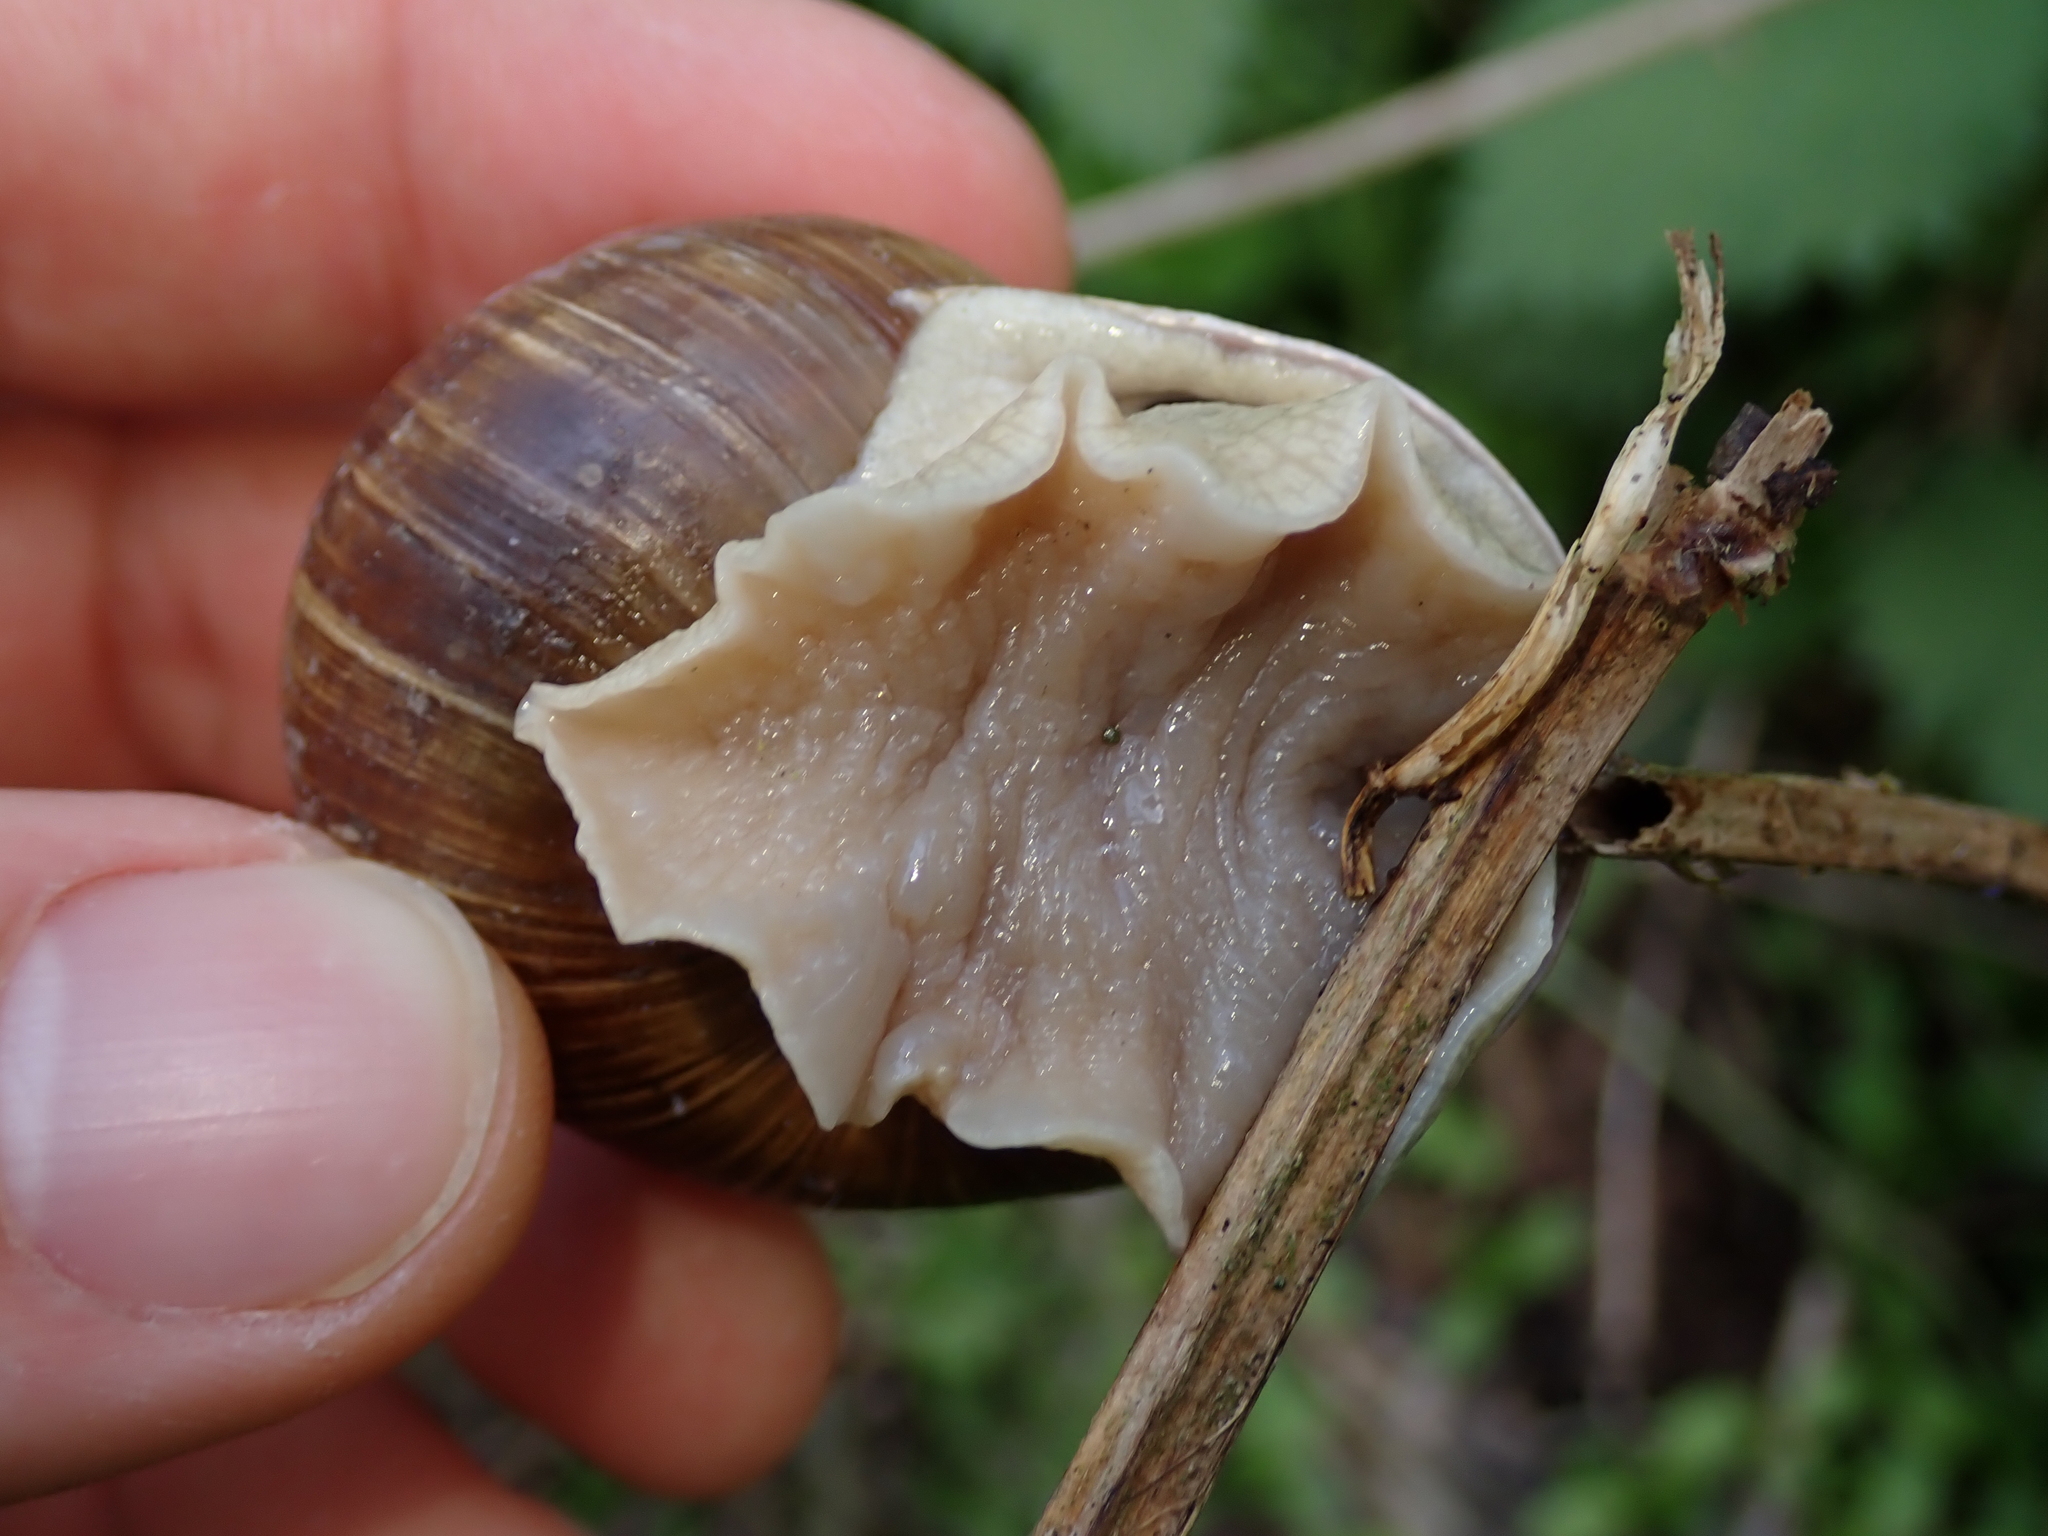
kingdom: Animalia
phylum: Mollusca
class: Gastropoda
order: Stylommatophora
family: Helicidae
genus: Helix
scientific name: Helix pomatia
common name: Roman snail
